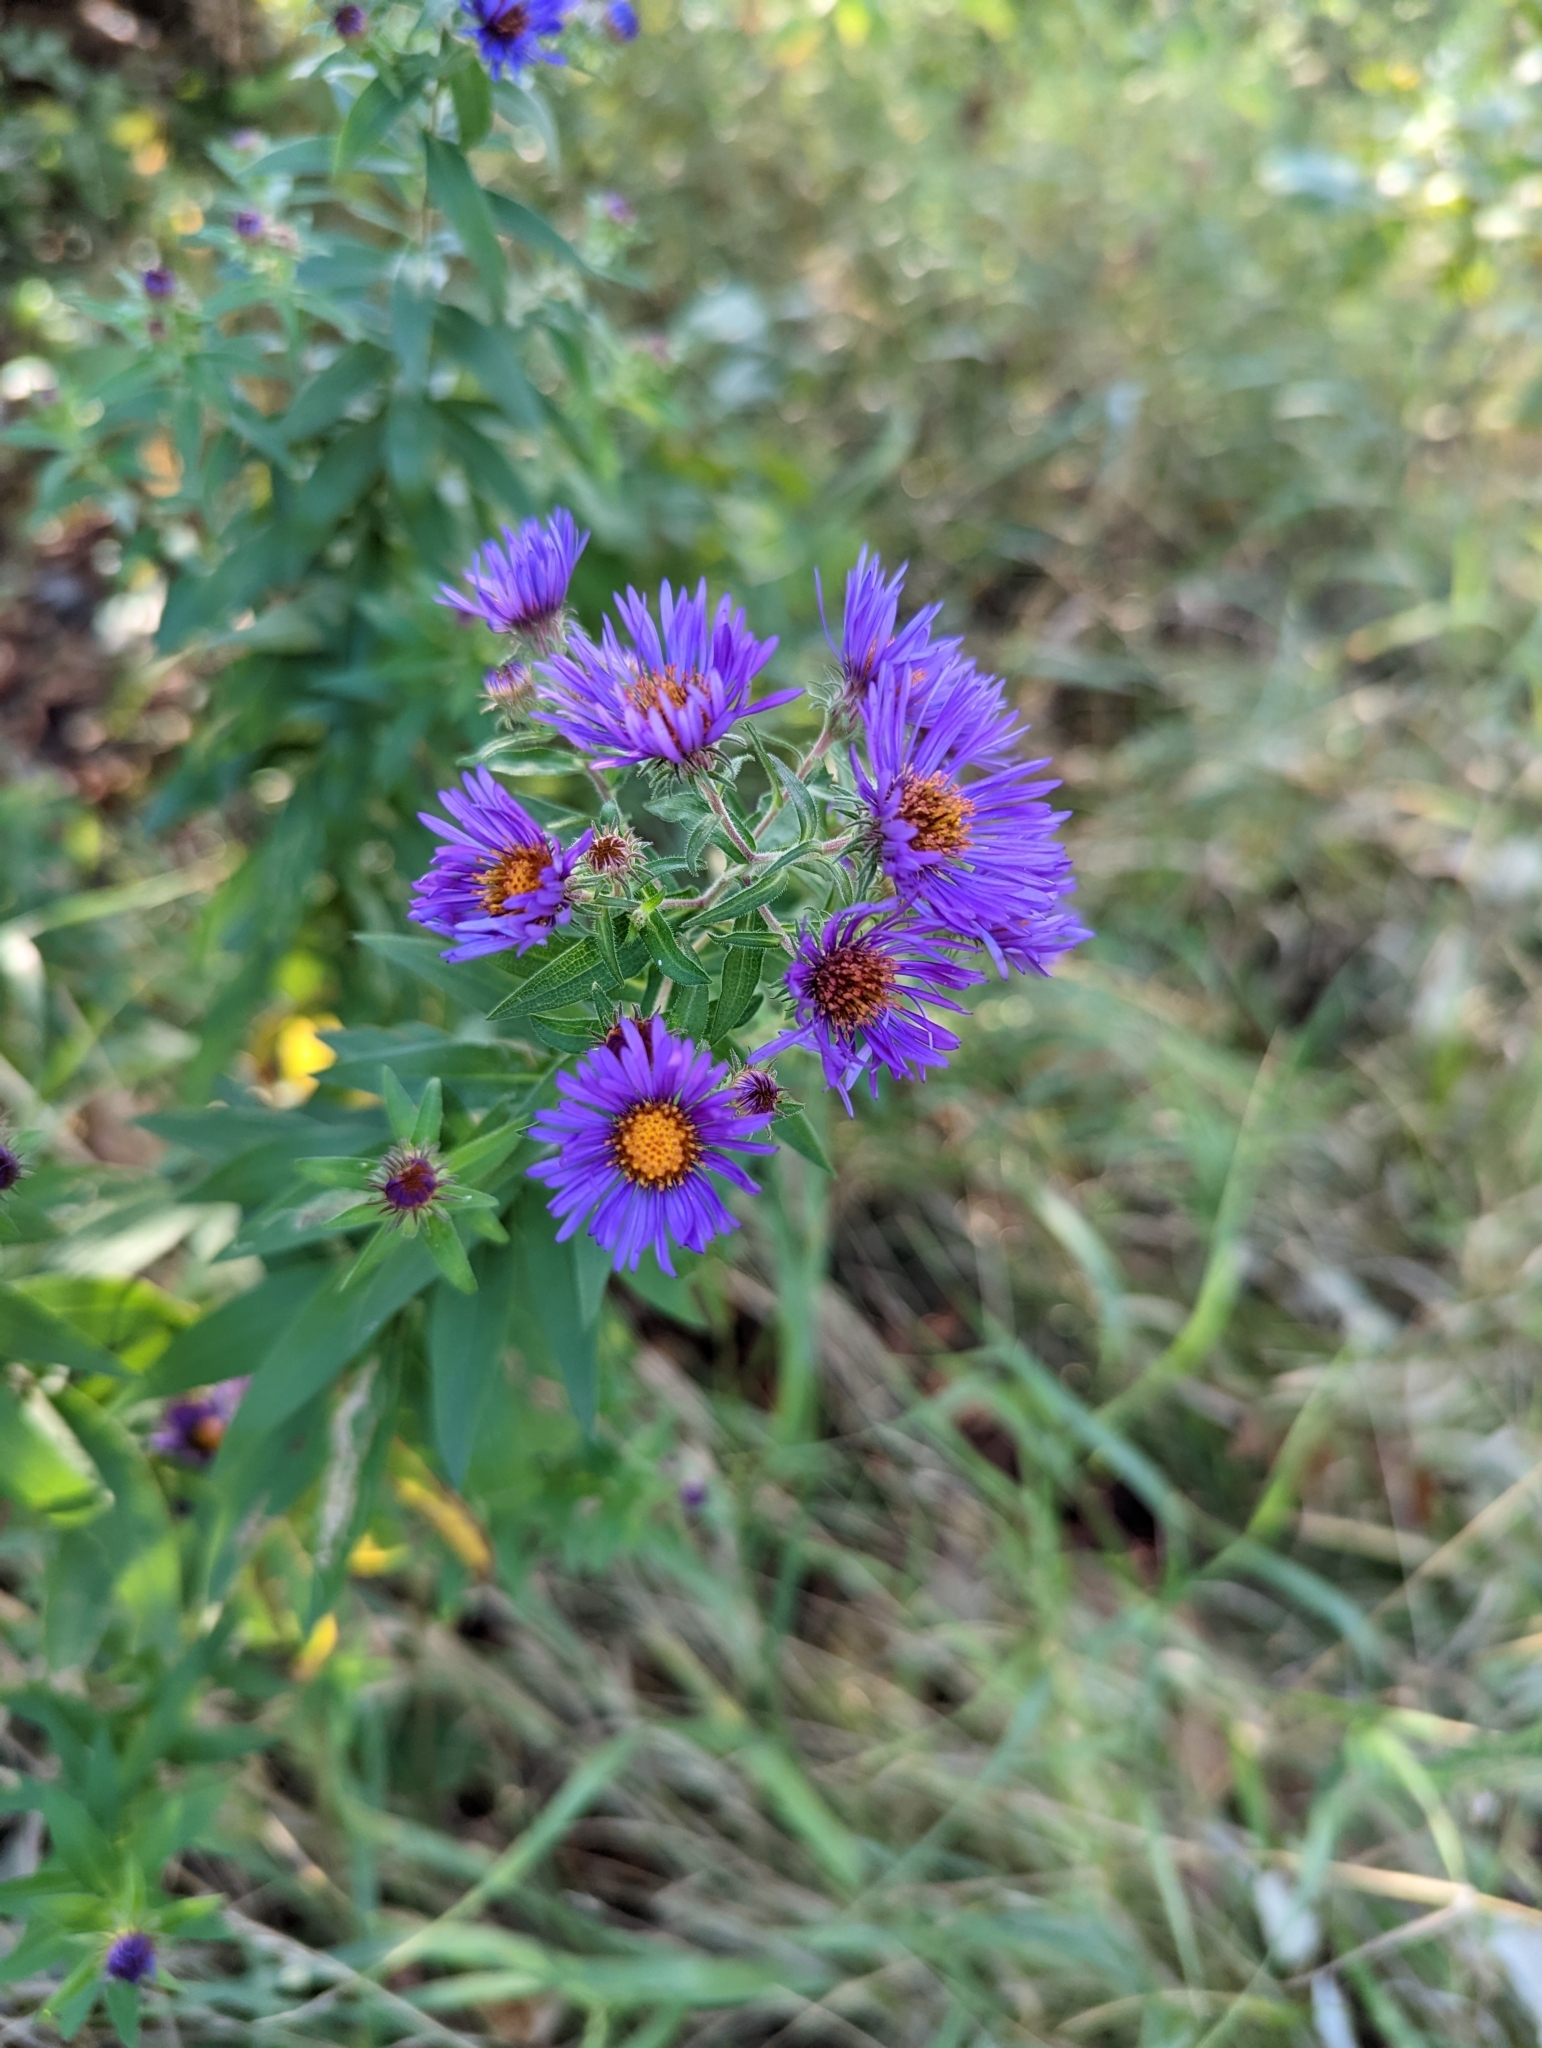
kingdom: Plantae
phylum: Tracheophyta
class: Magnoliopsida
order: Asterales
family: Asteraceae
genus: Symphyotrichum
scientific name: Symphyotrichum novae-angliae
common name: Michaelmas daisy
